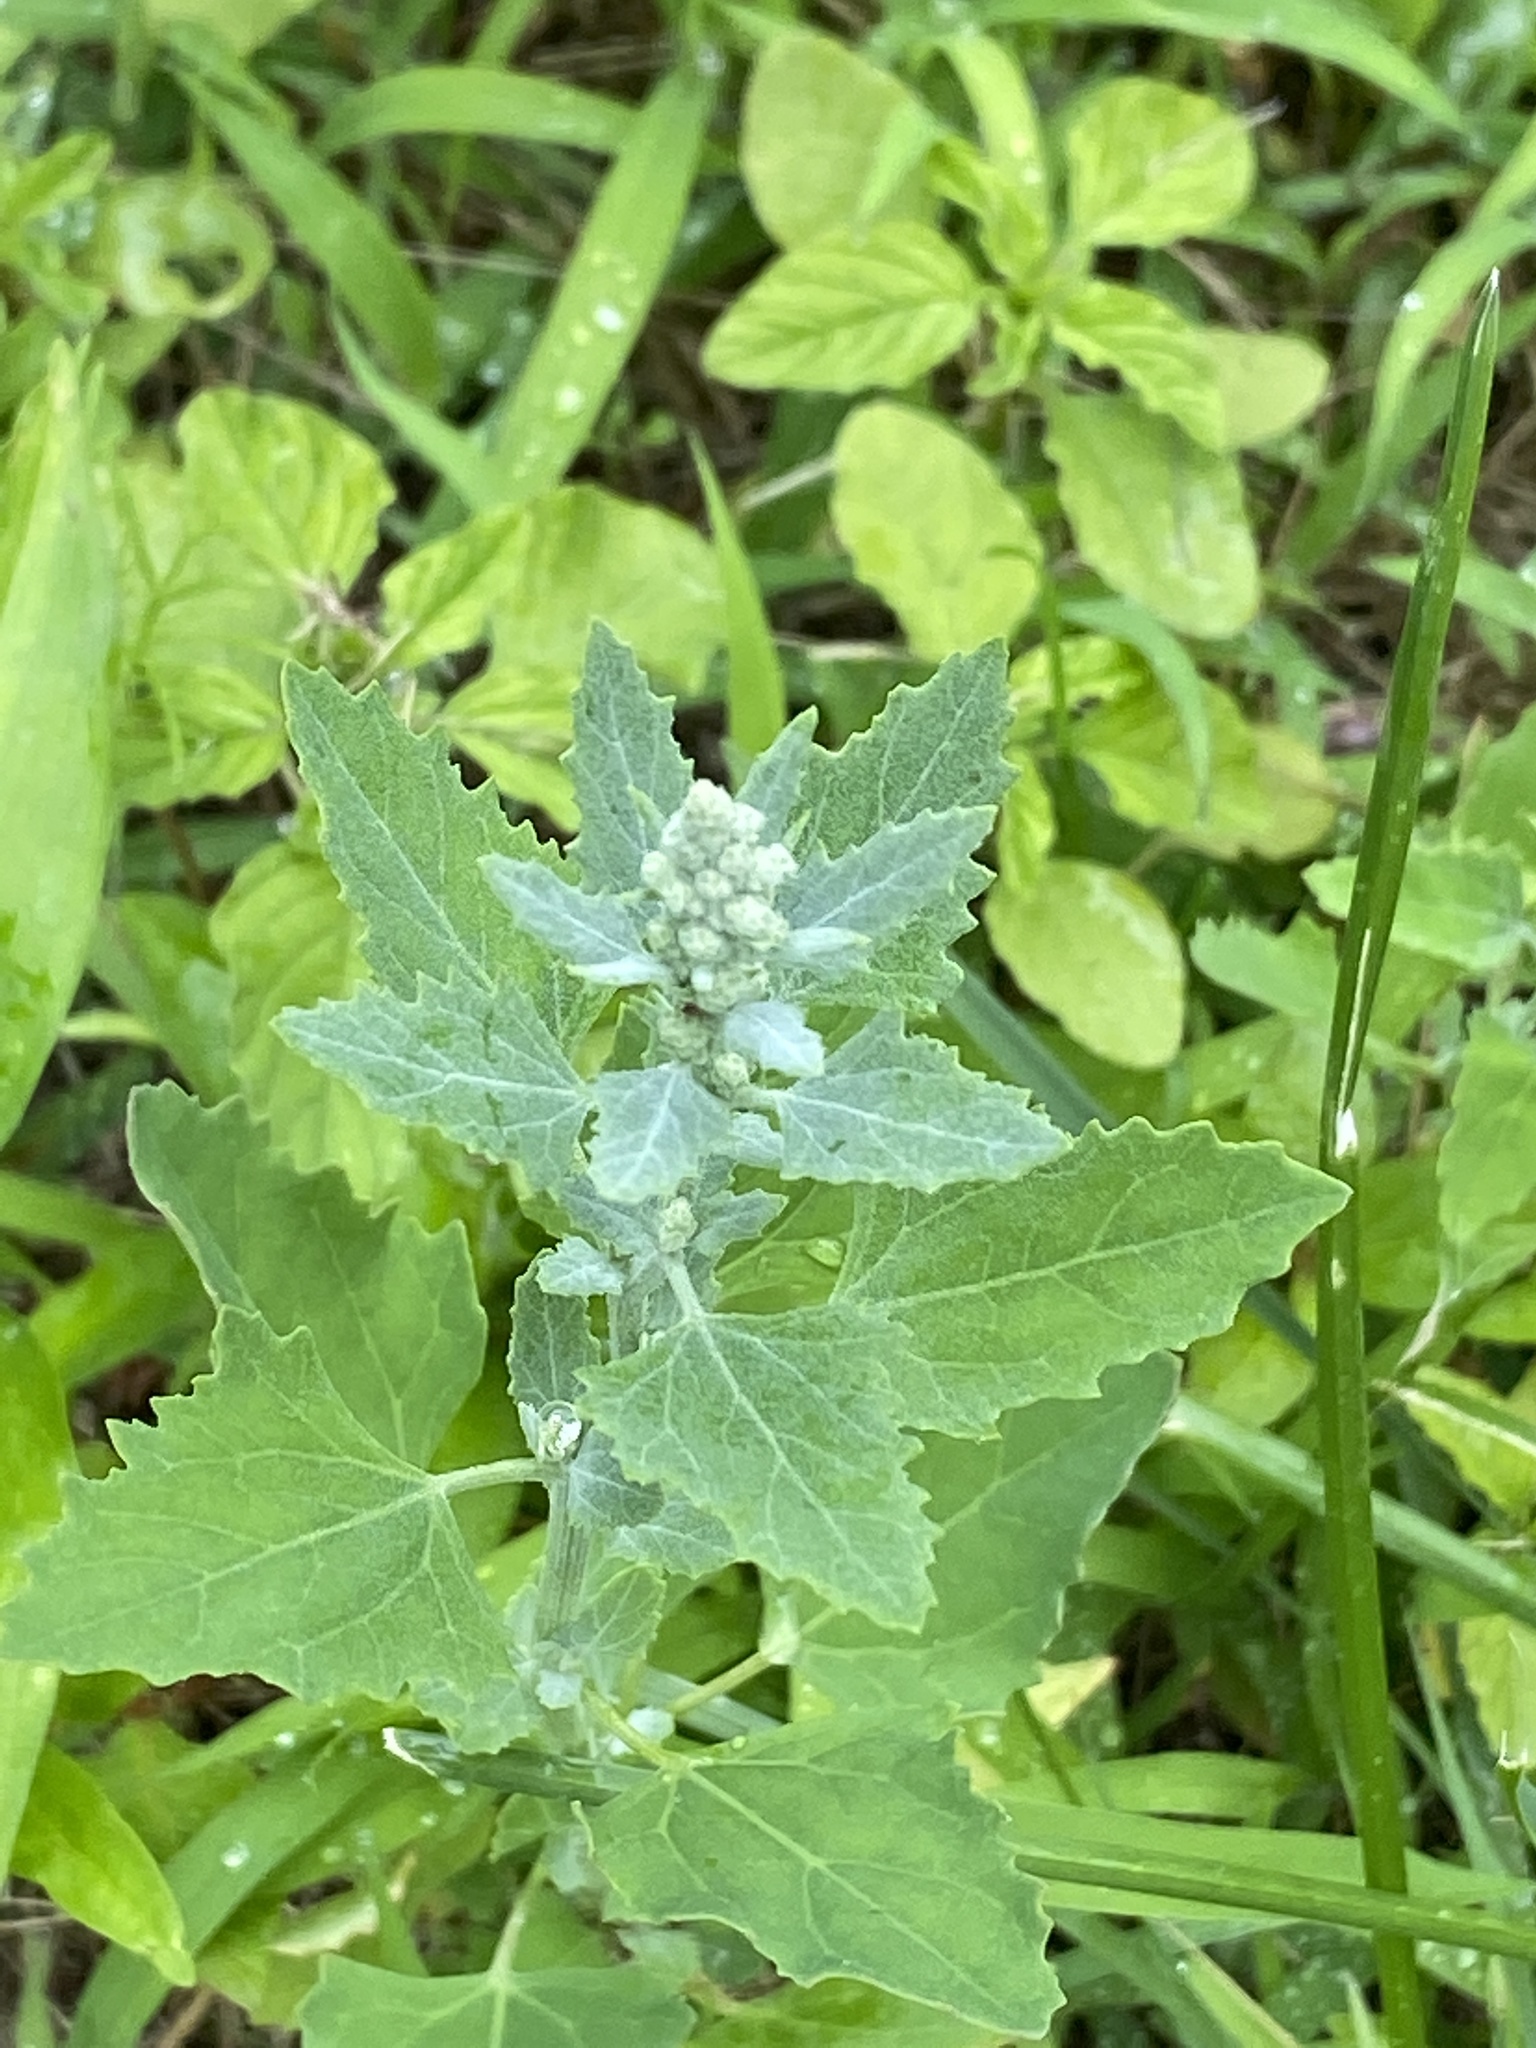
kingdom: Plantae
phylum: Tracheophyta
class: Magnoliopsida
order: Caryophyllales
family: Amaranthaceae
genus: Chenopodium
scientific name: Chenopodium album
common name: Fat-hen
